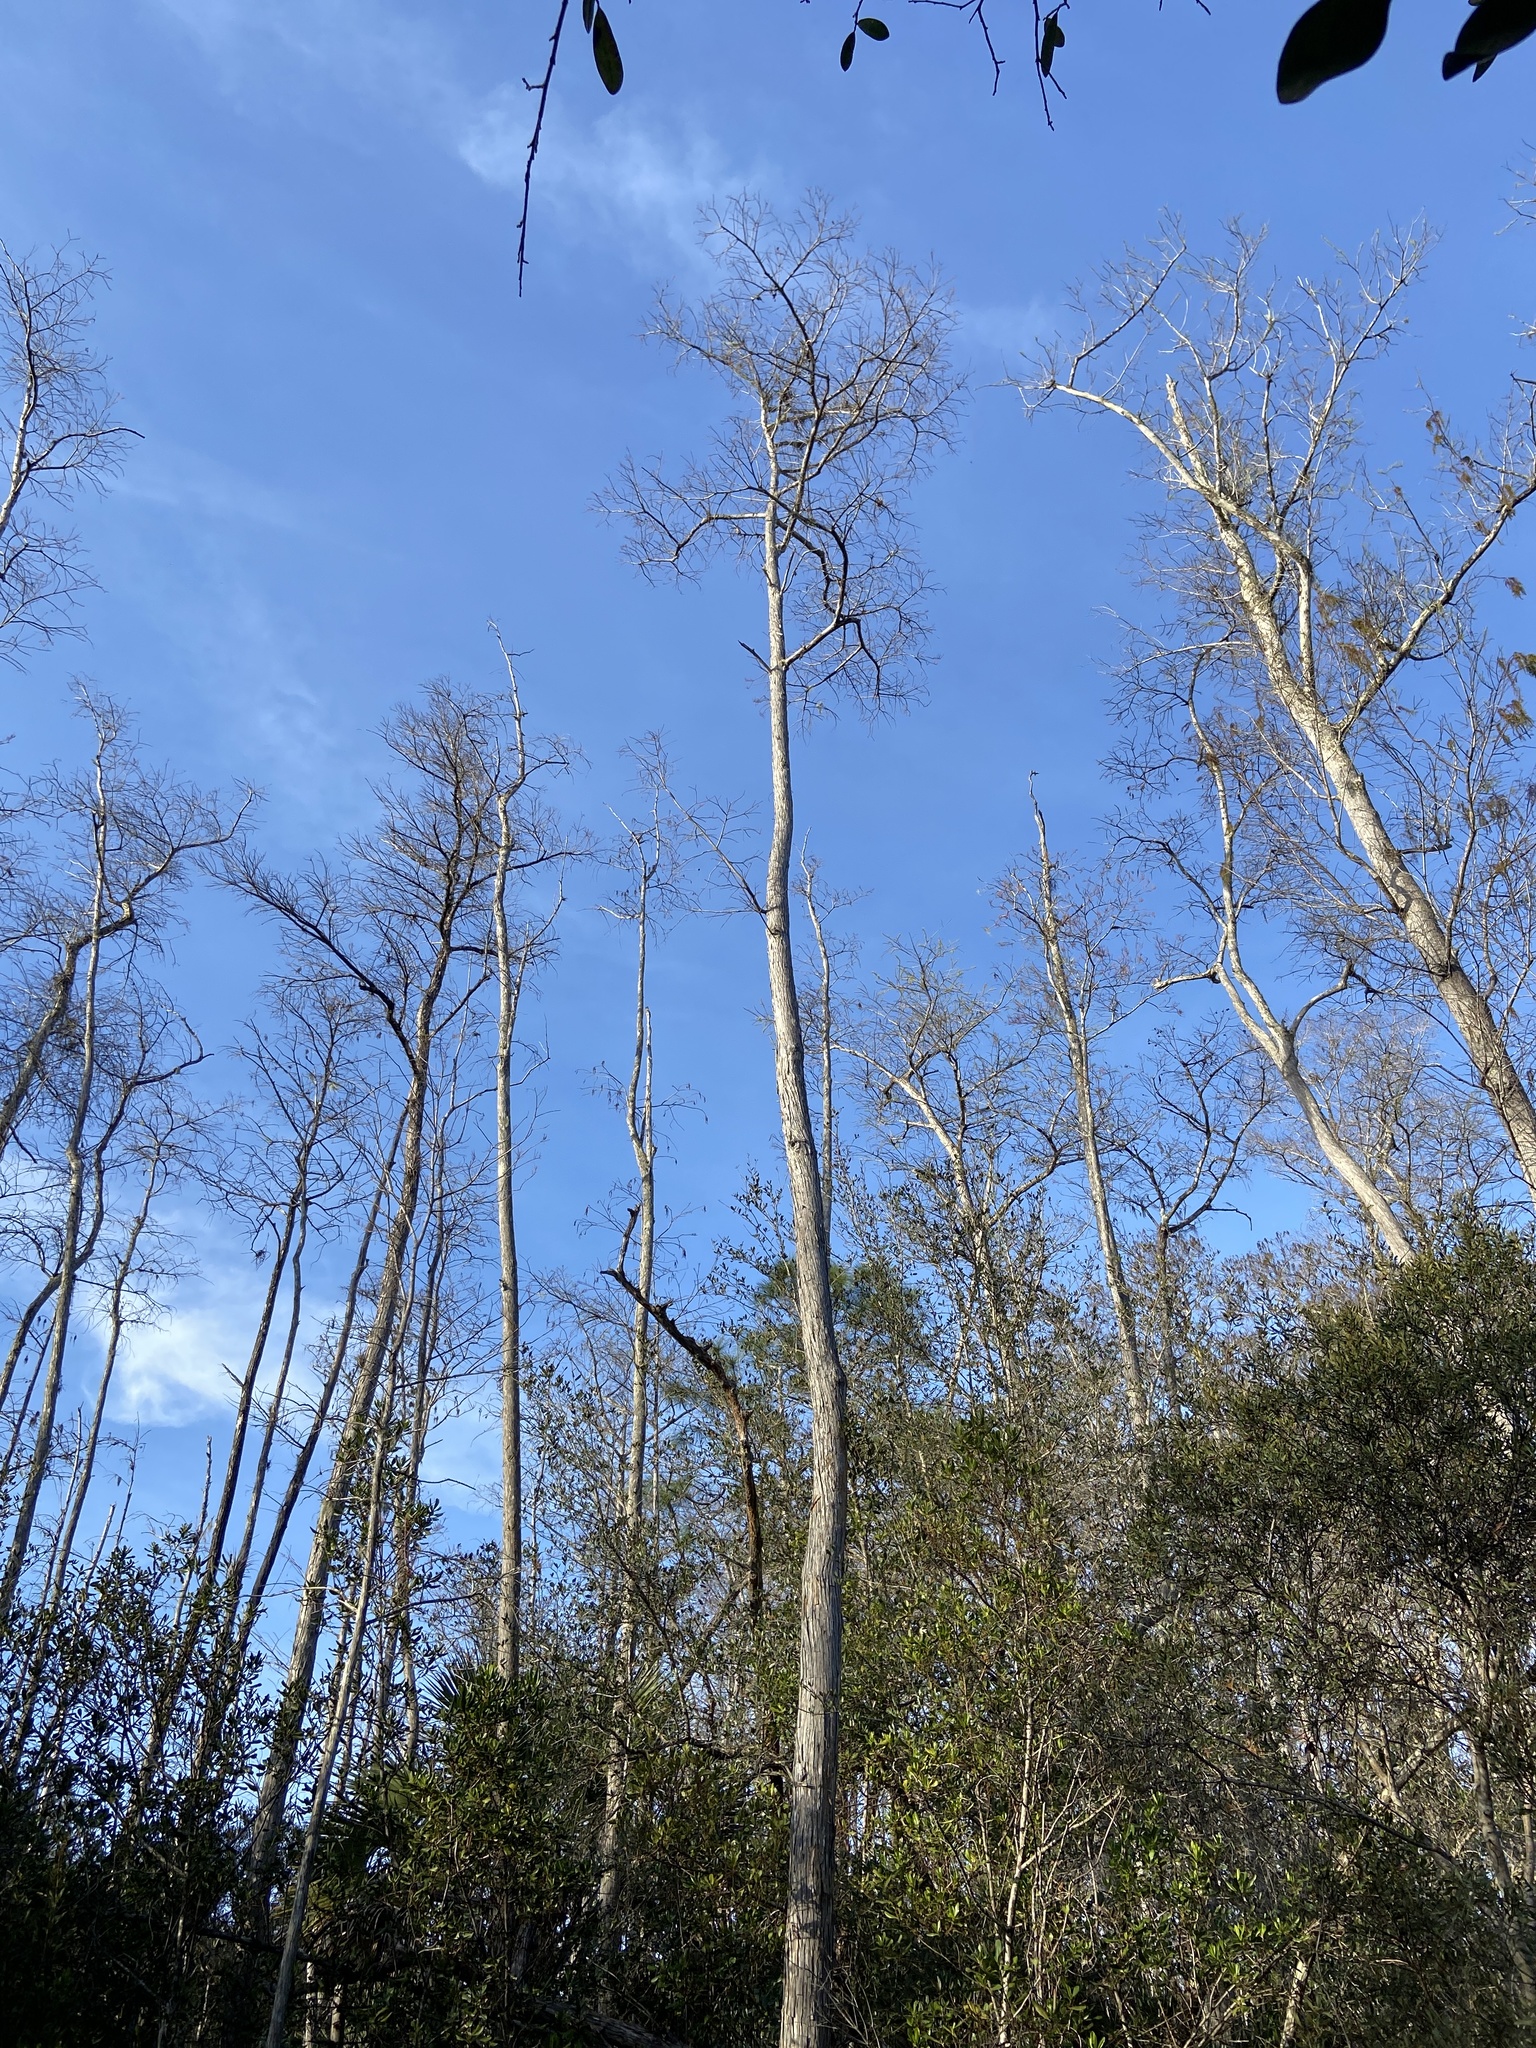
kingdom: Plantae
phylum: Tracheophyta
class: Pinopsida
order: Pinales
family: Cupressaceae
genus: Taxodium
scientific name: Taxodium distichum
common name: Bald cypress
